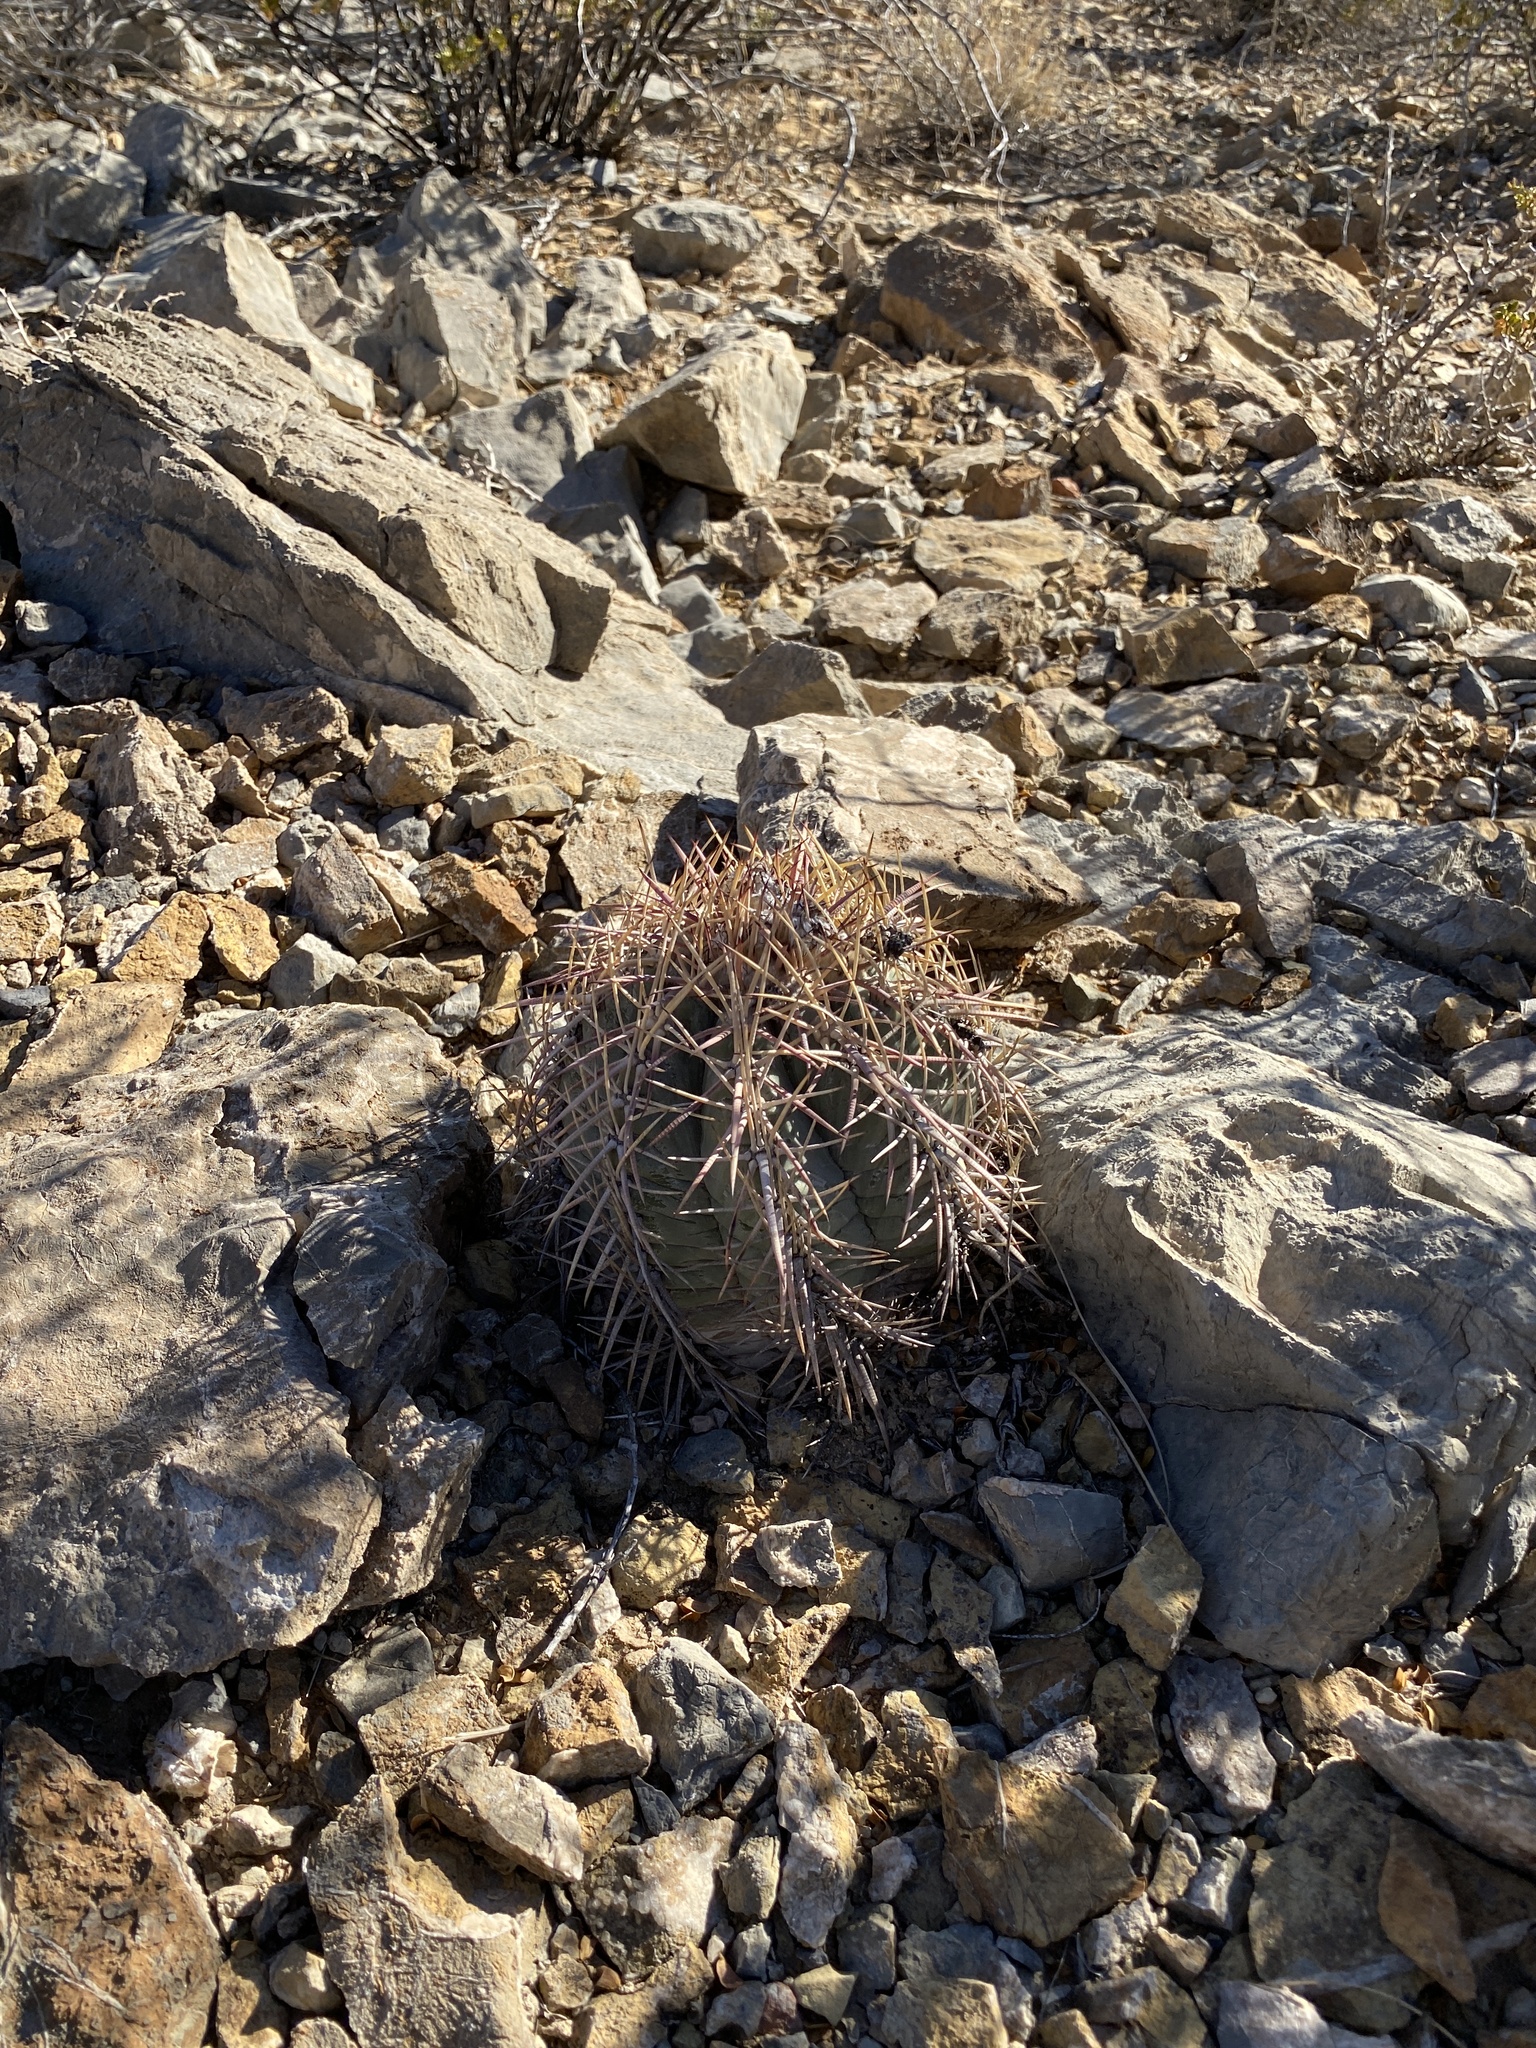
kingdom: Plantae
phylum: Tracheophyta
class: Magnoliopsida
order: Caryophyllales
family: Cactaceae
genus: Echinocactus
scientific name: Echinocactus horizonthalonius
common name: Devilshead
